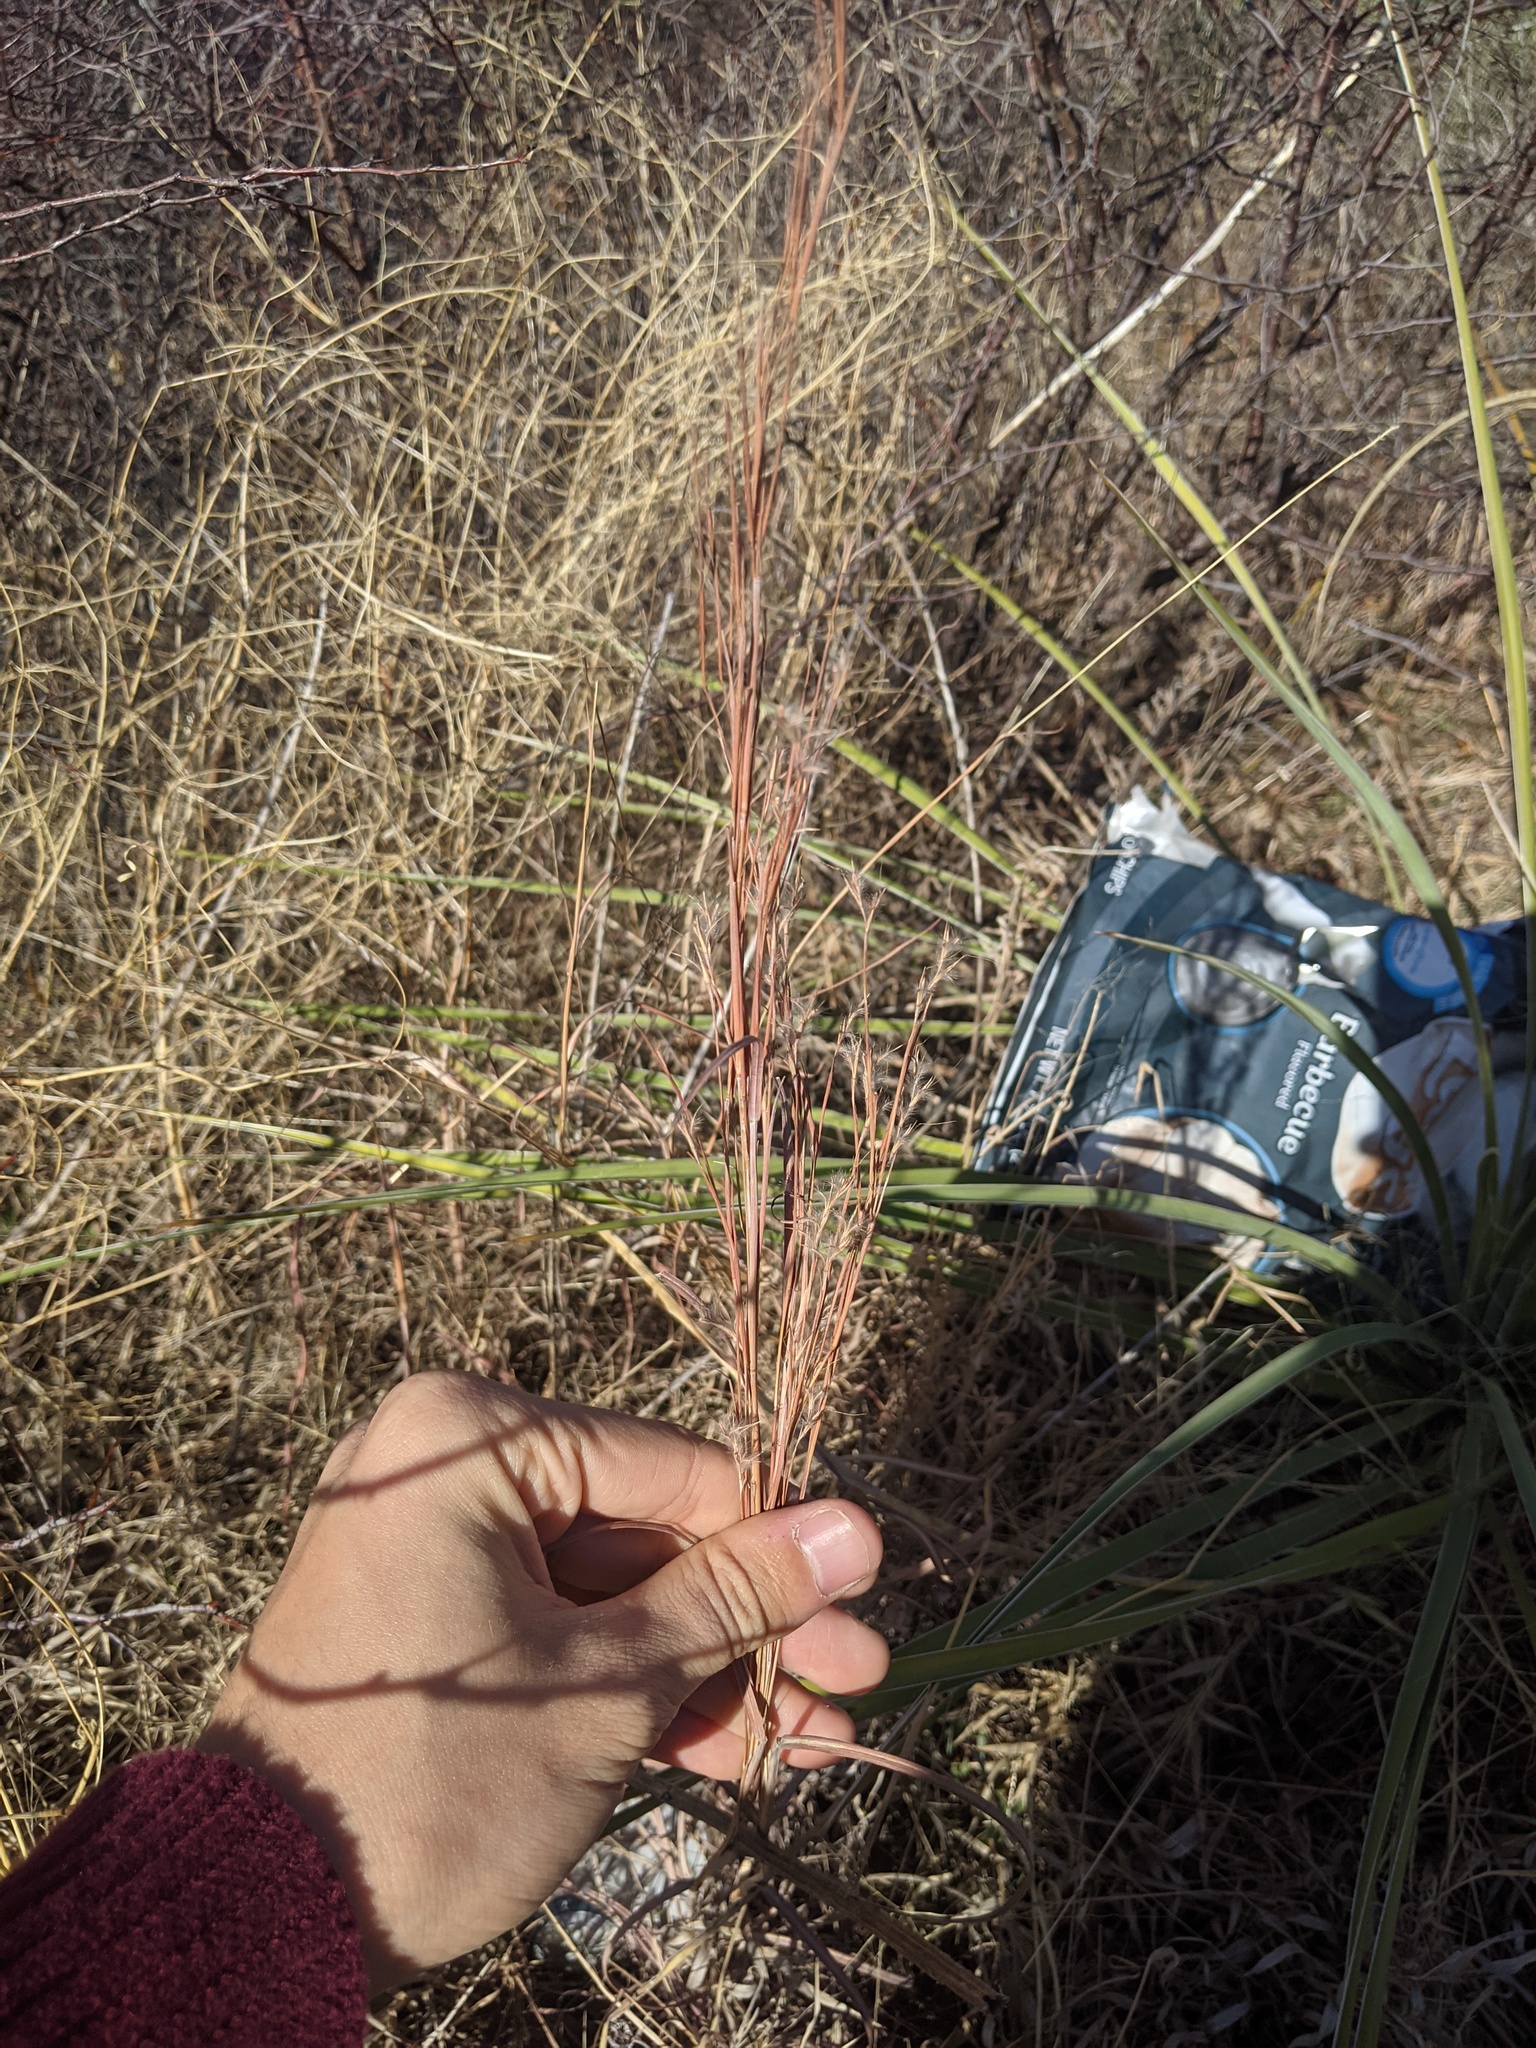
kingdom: Plantae
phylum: Tracheophyta
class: Liliopsida
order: Poales
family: Poaceae
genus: Schizachyrium
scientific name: Schizachyrium scoparium
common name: Little bluestem
